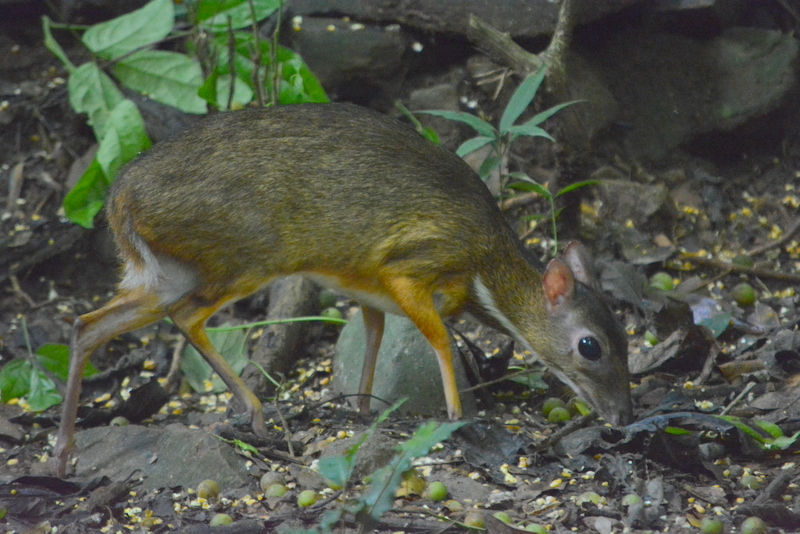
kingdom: Animalia
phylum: Chordata
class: Mammalia
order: Artiodactyla
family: Tragulidae
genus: Tragulus
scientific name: Tragulus kanchil
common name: Lesser mouse-deer
